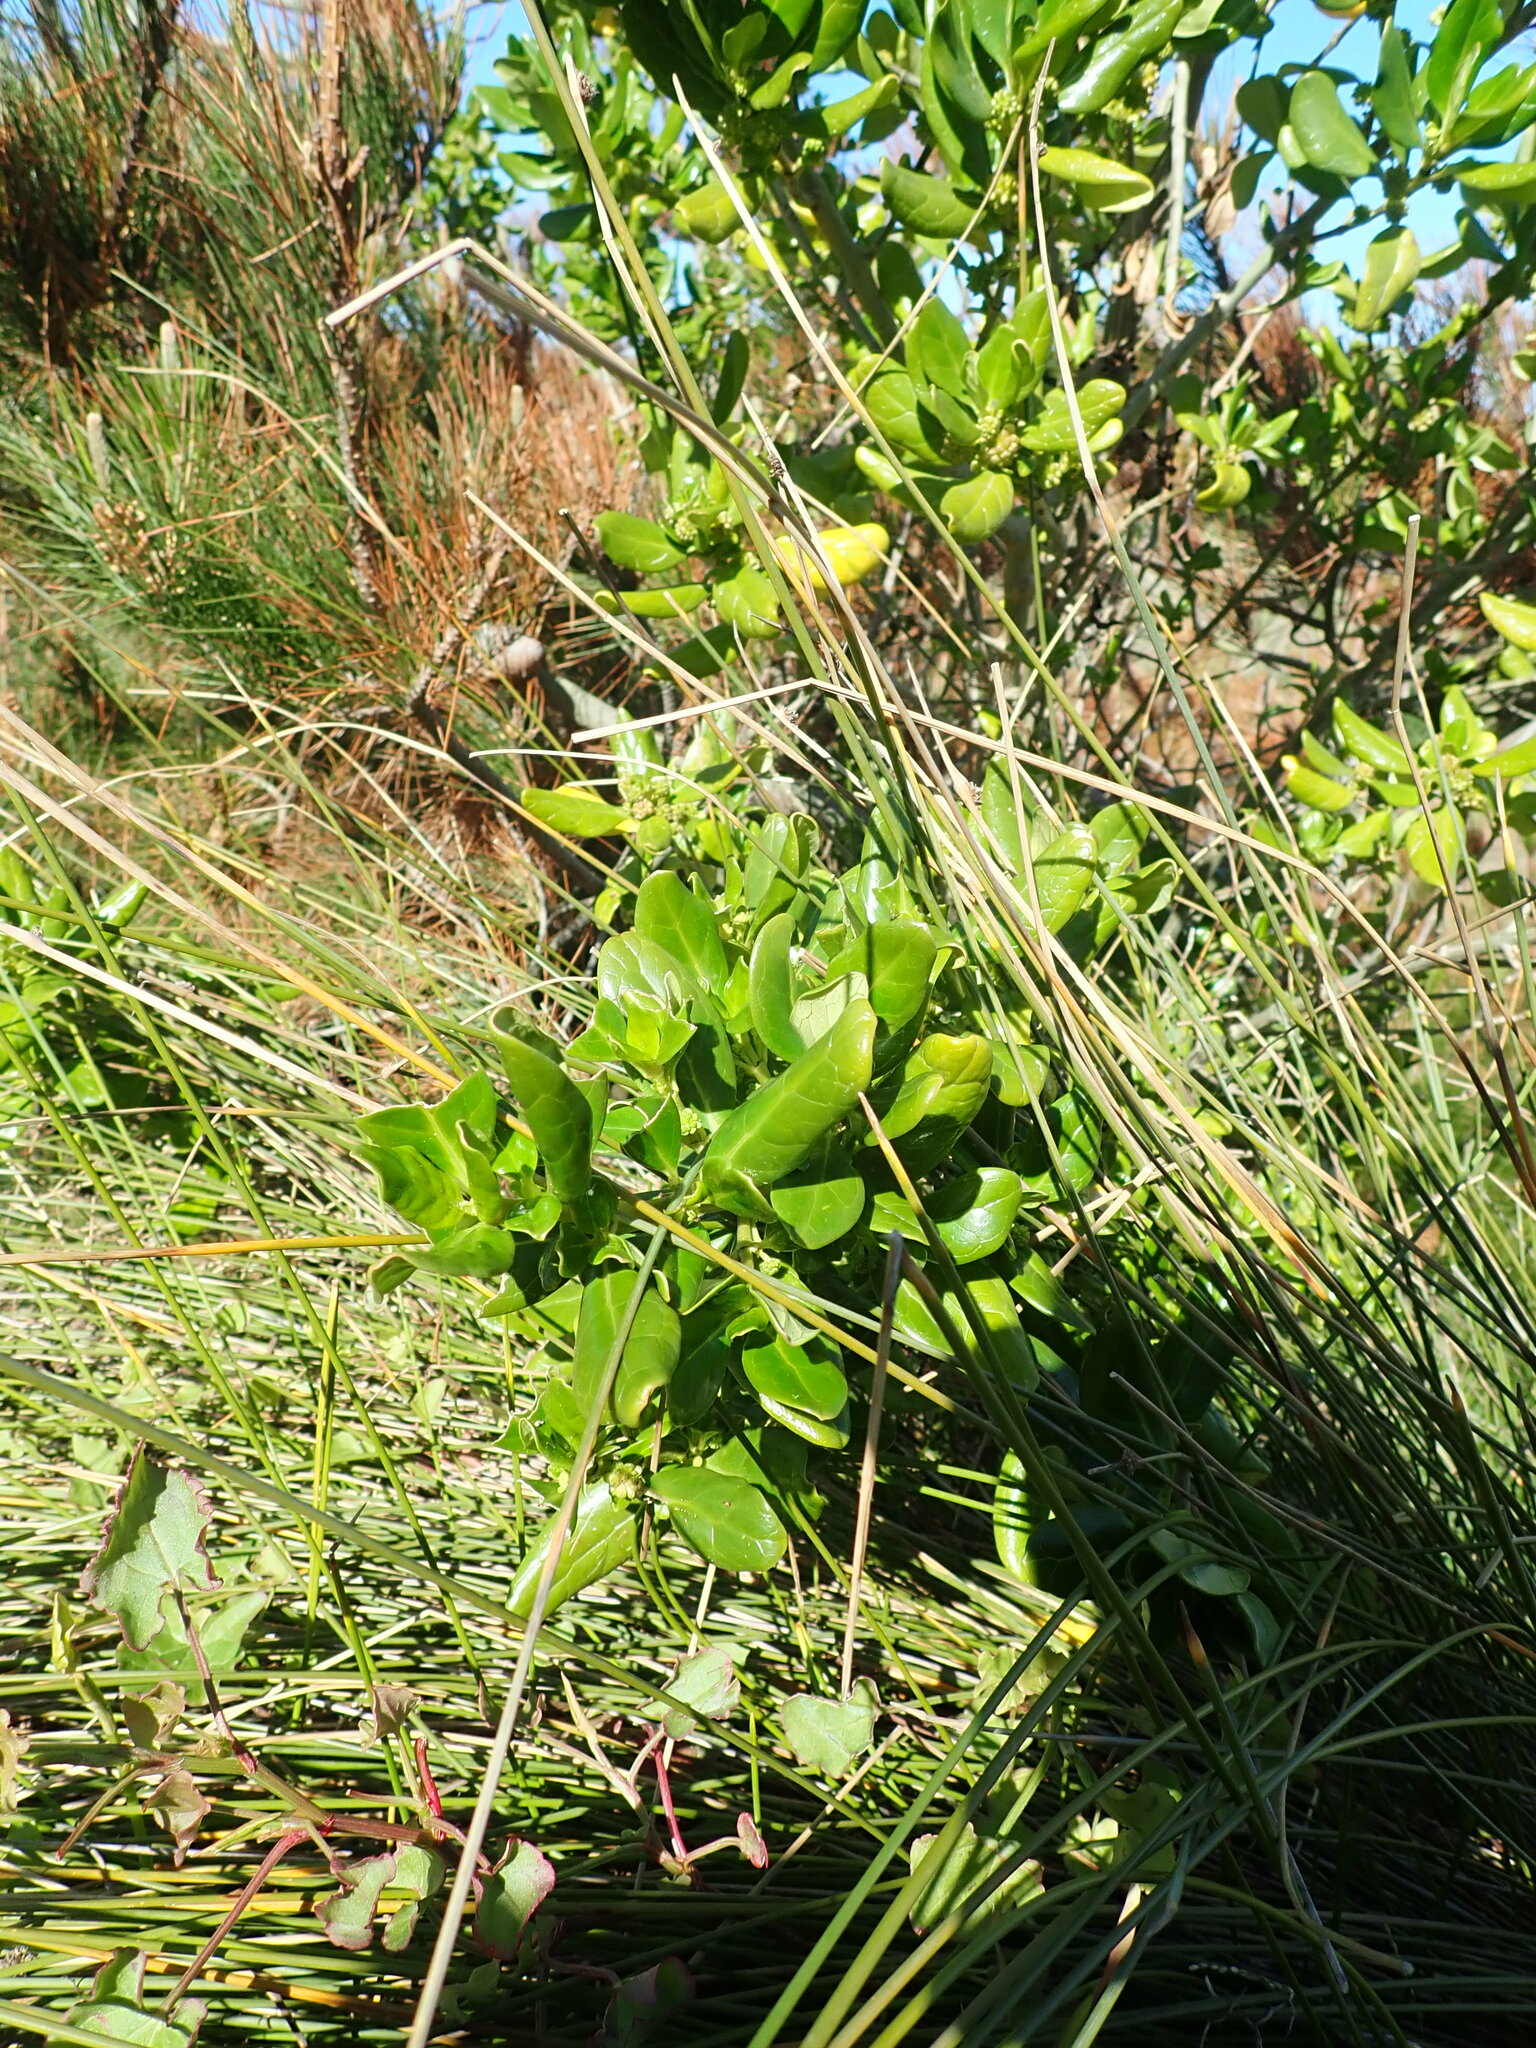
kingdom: Plantae
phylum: Tracheophyta
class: Magnoliopsida
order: Gentianales
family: Rubiaceae
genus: Coprosma
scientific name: Coprosma repens
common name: Tree bedstraw
